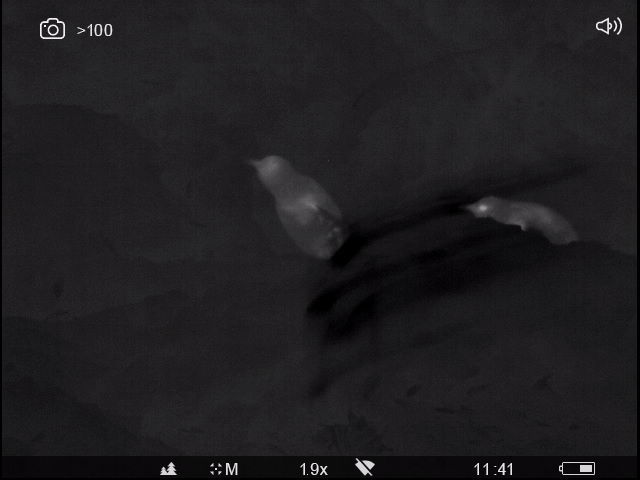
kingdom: Animalia
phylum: Chordata
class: Aves
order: Sphenisciformes
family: Spheniscidae
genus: Eudyptula
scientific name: Eudyptula minor
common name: Little penguin
